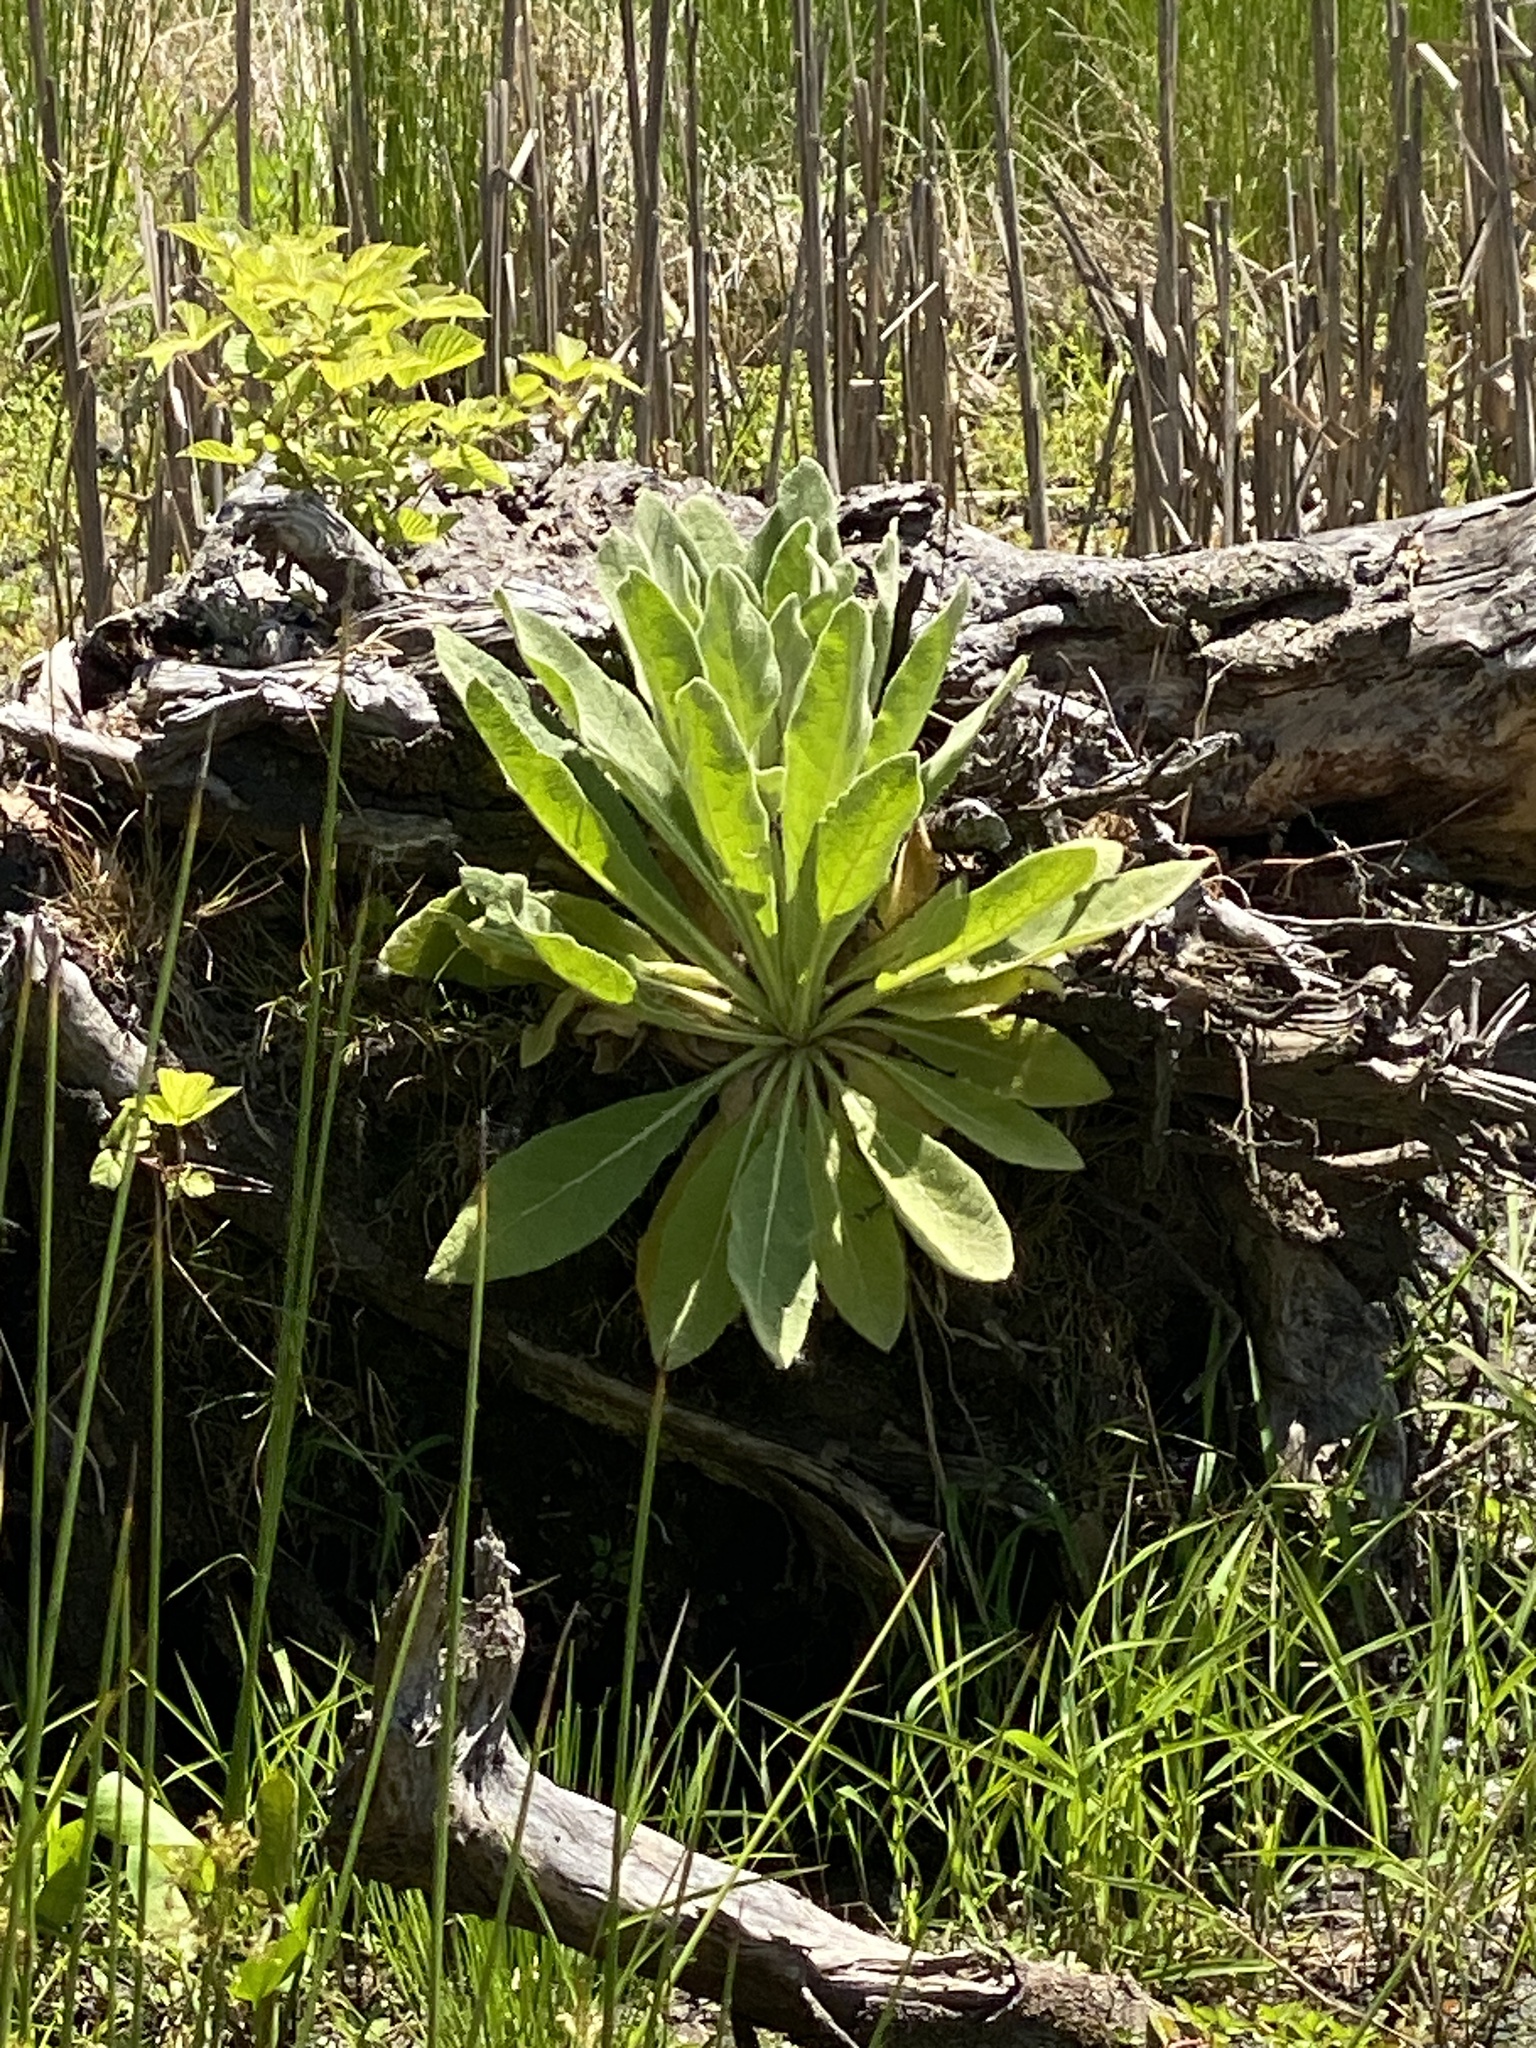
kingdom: Plantae
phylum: Tracheophyta
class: Magnoliopsida
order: Lamiales
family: Scrophulariaceae
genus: Verbascum
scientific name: Verbascum thapsus
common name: Common mullein
